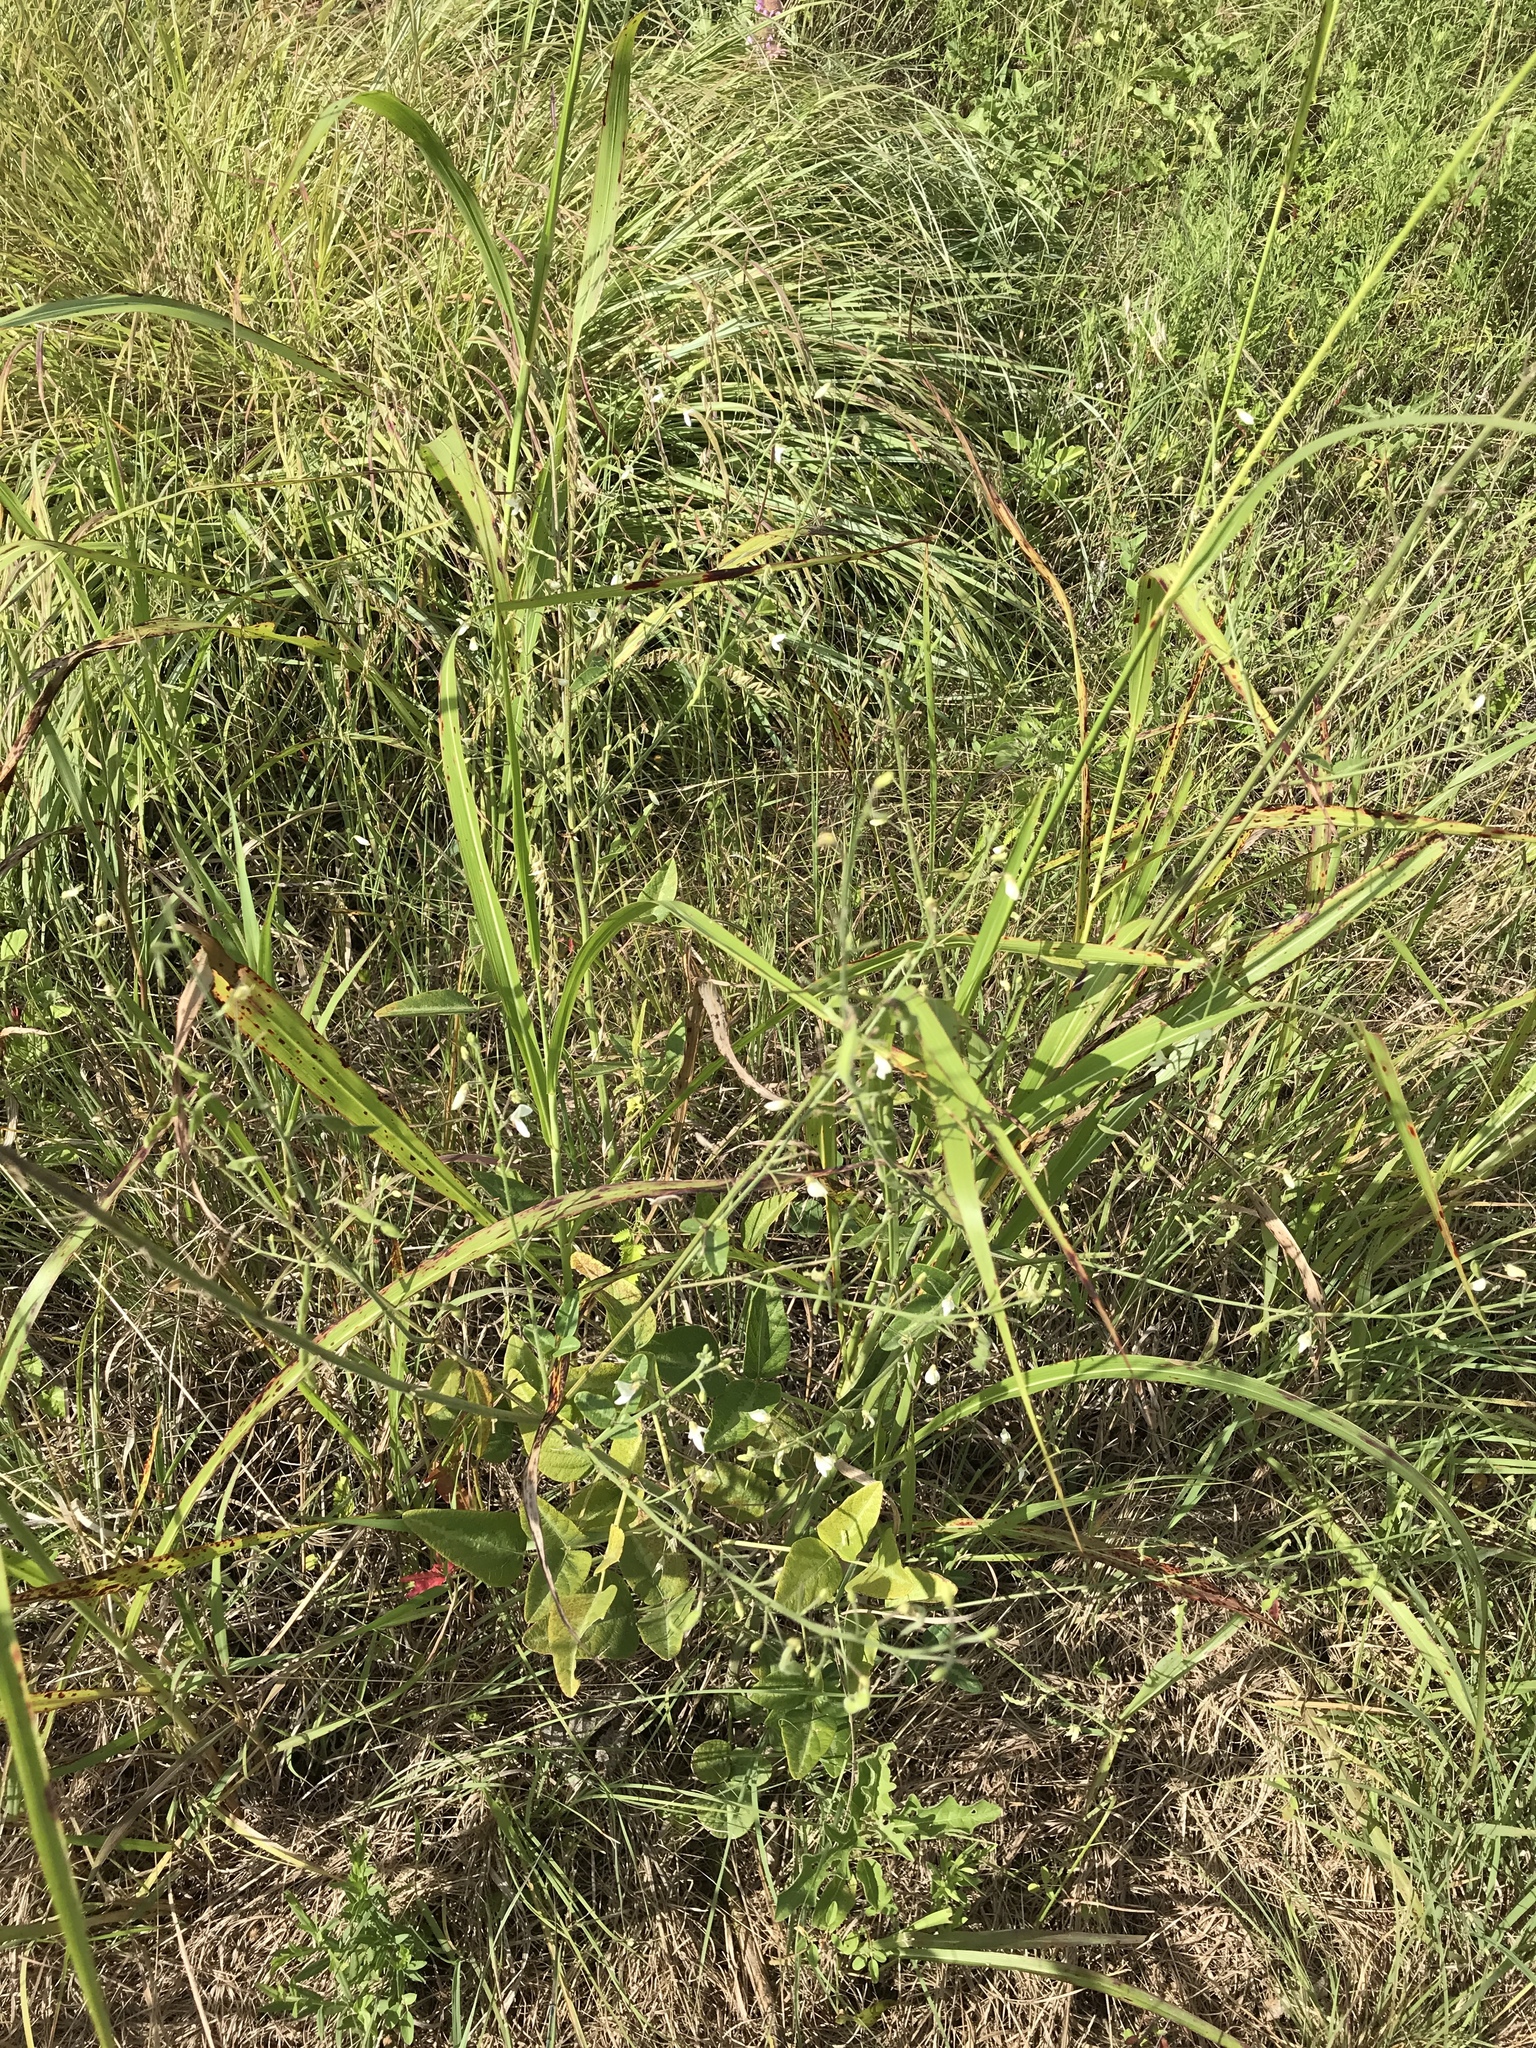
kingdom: Plantae
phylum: Tracheophyta
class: Magnoliopsida
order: Fabales
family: Fabaceae
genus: Desmodium
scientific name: Desmodium tweedyi
